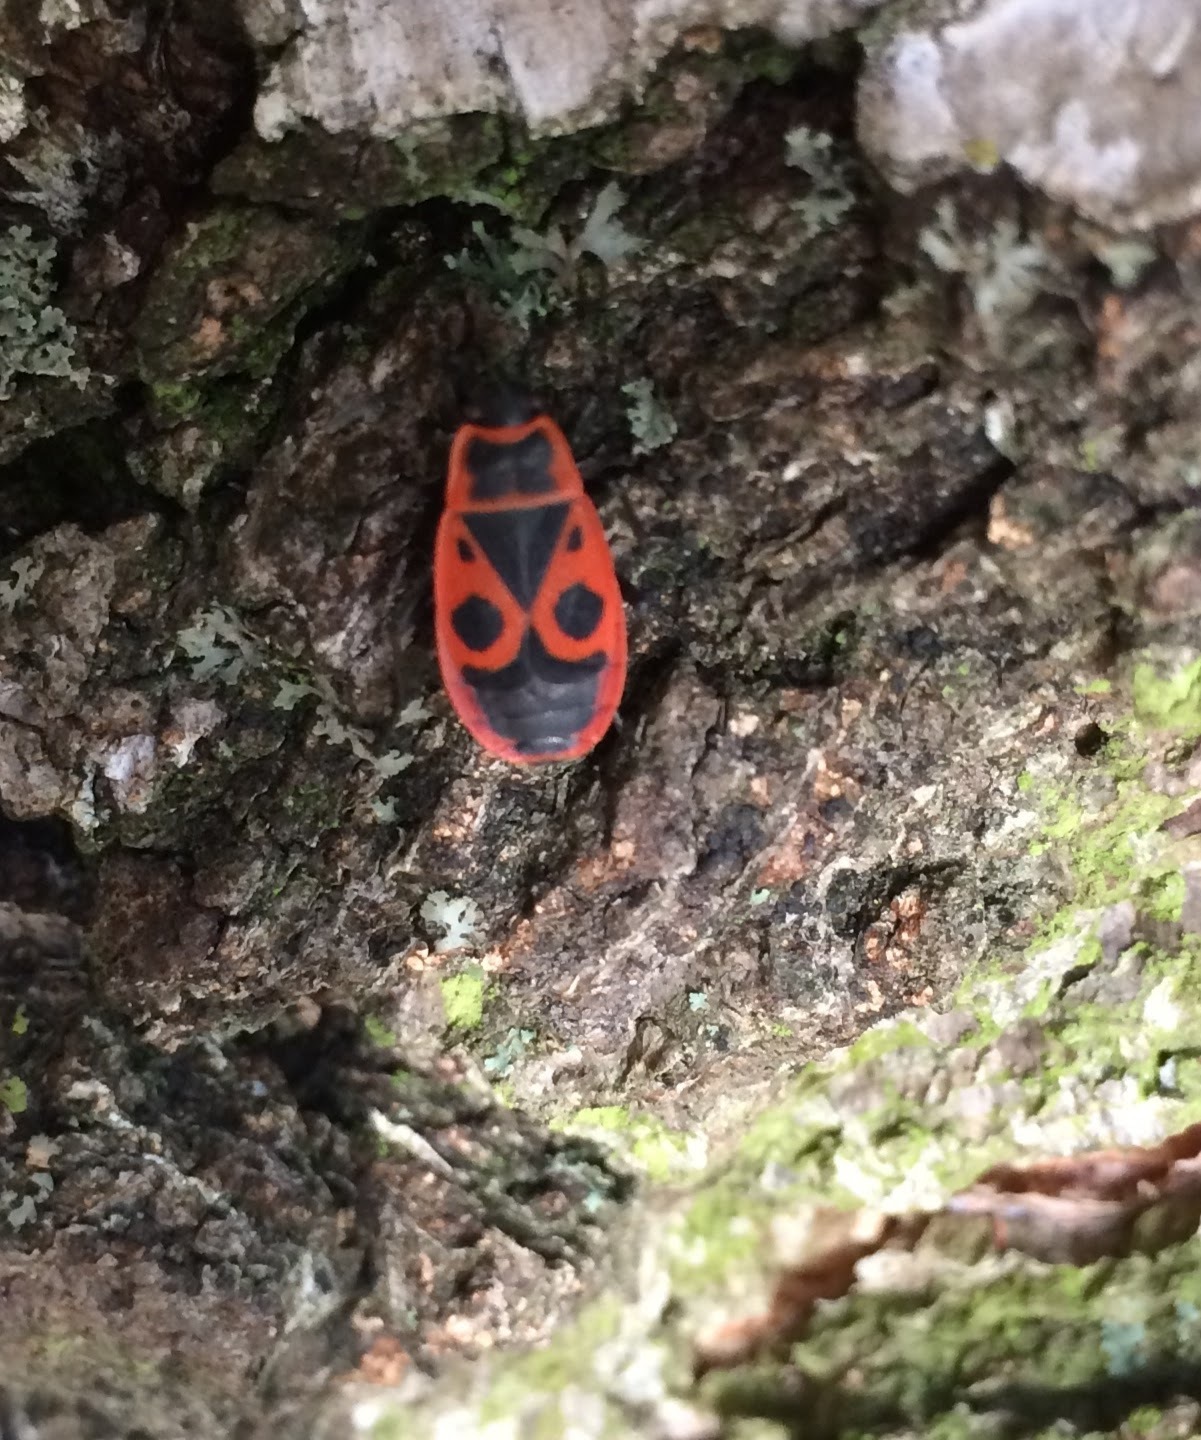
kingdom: Animalia
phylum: Arthropoda
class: Insecta
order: Hemiptera
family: Pyrrhocoridae
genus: Pyrrhocoris
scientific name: Pyrrhocoris apterus
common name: Firebug
